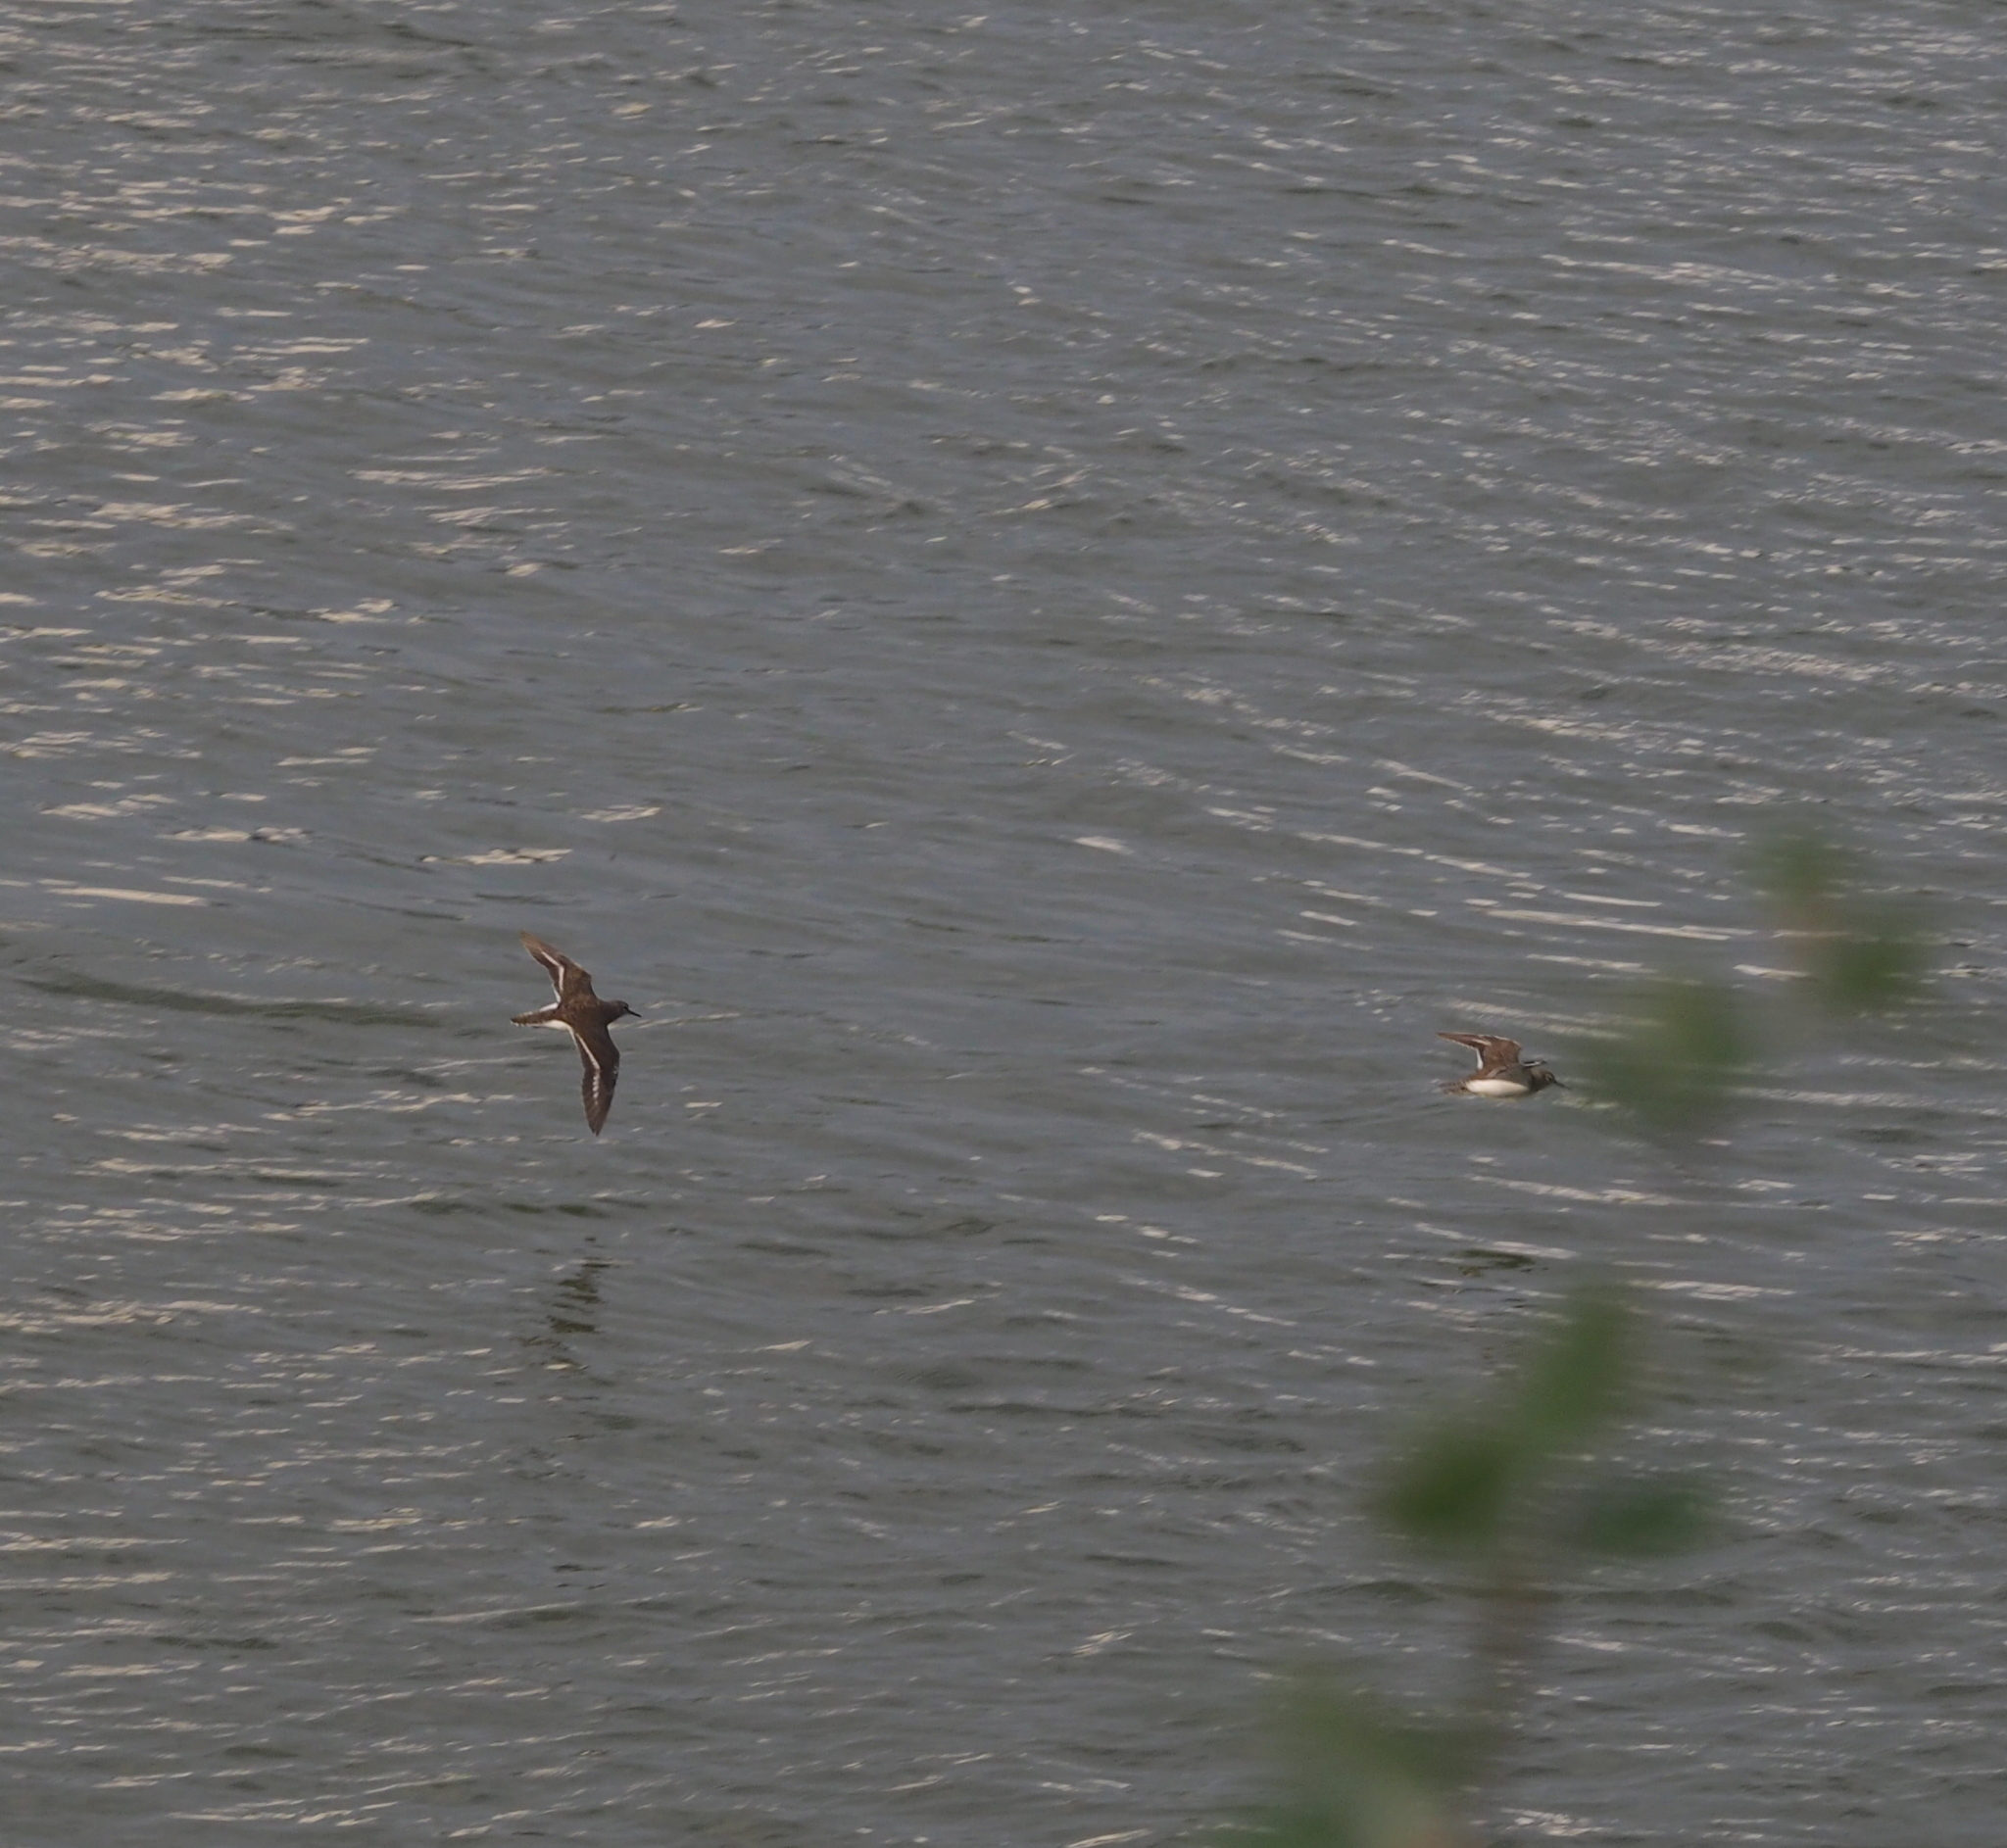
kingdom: Animalia
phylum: Chordata
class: Aves
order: Charadriiformes
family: Scolopacidae
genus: Actitis
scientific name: Actitis hypoleucos
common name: Common sandpiper
